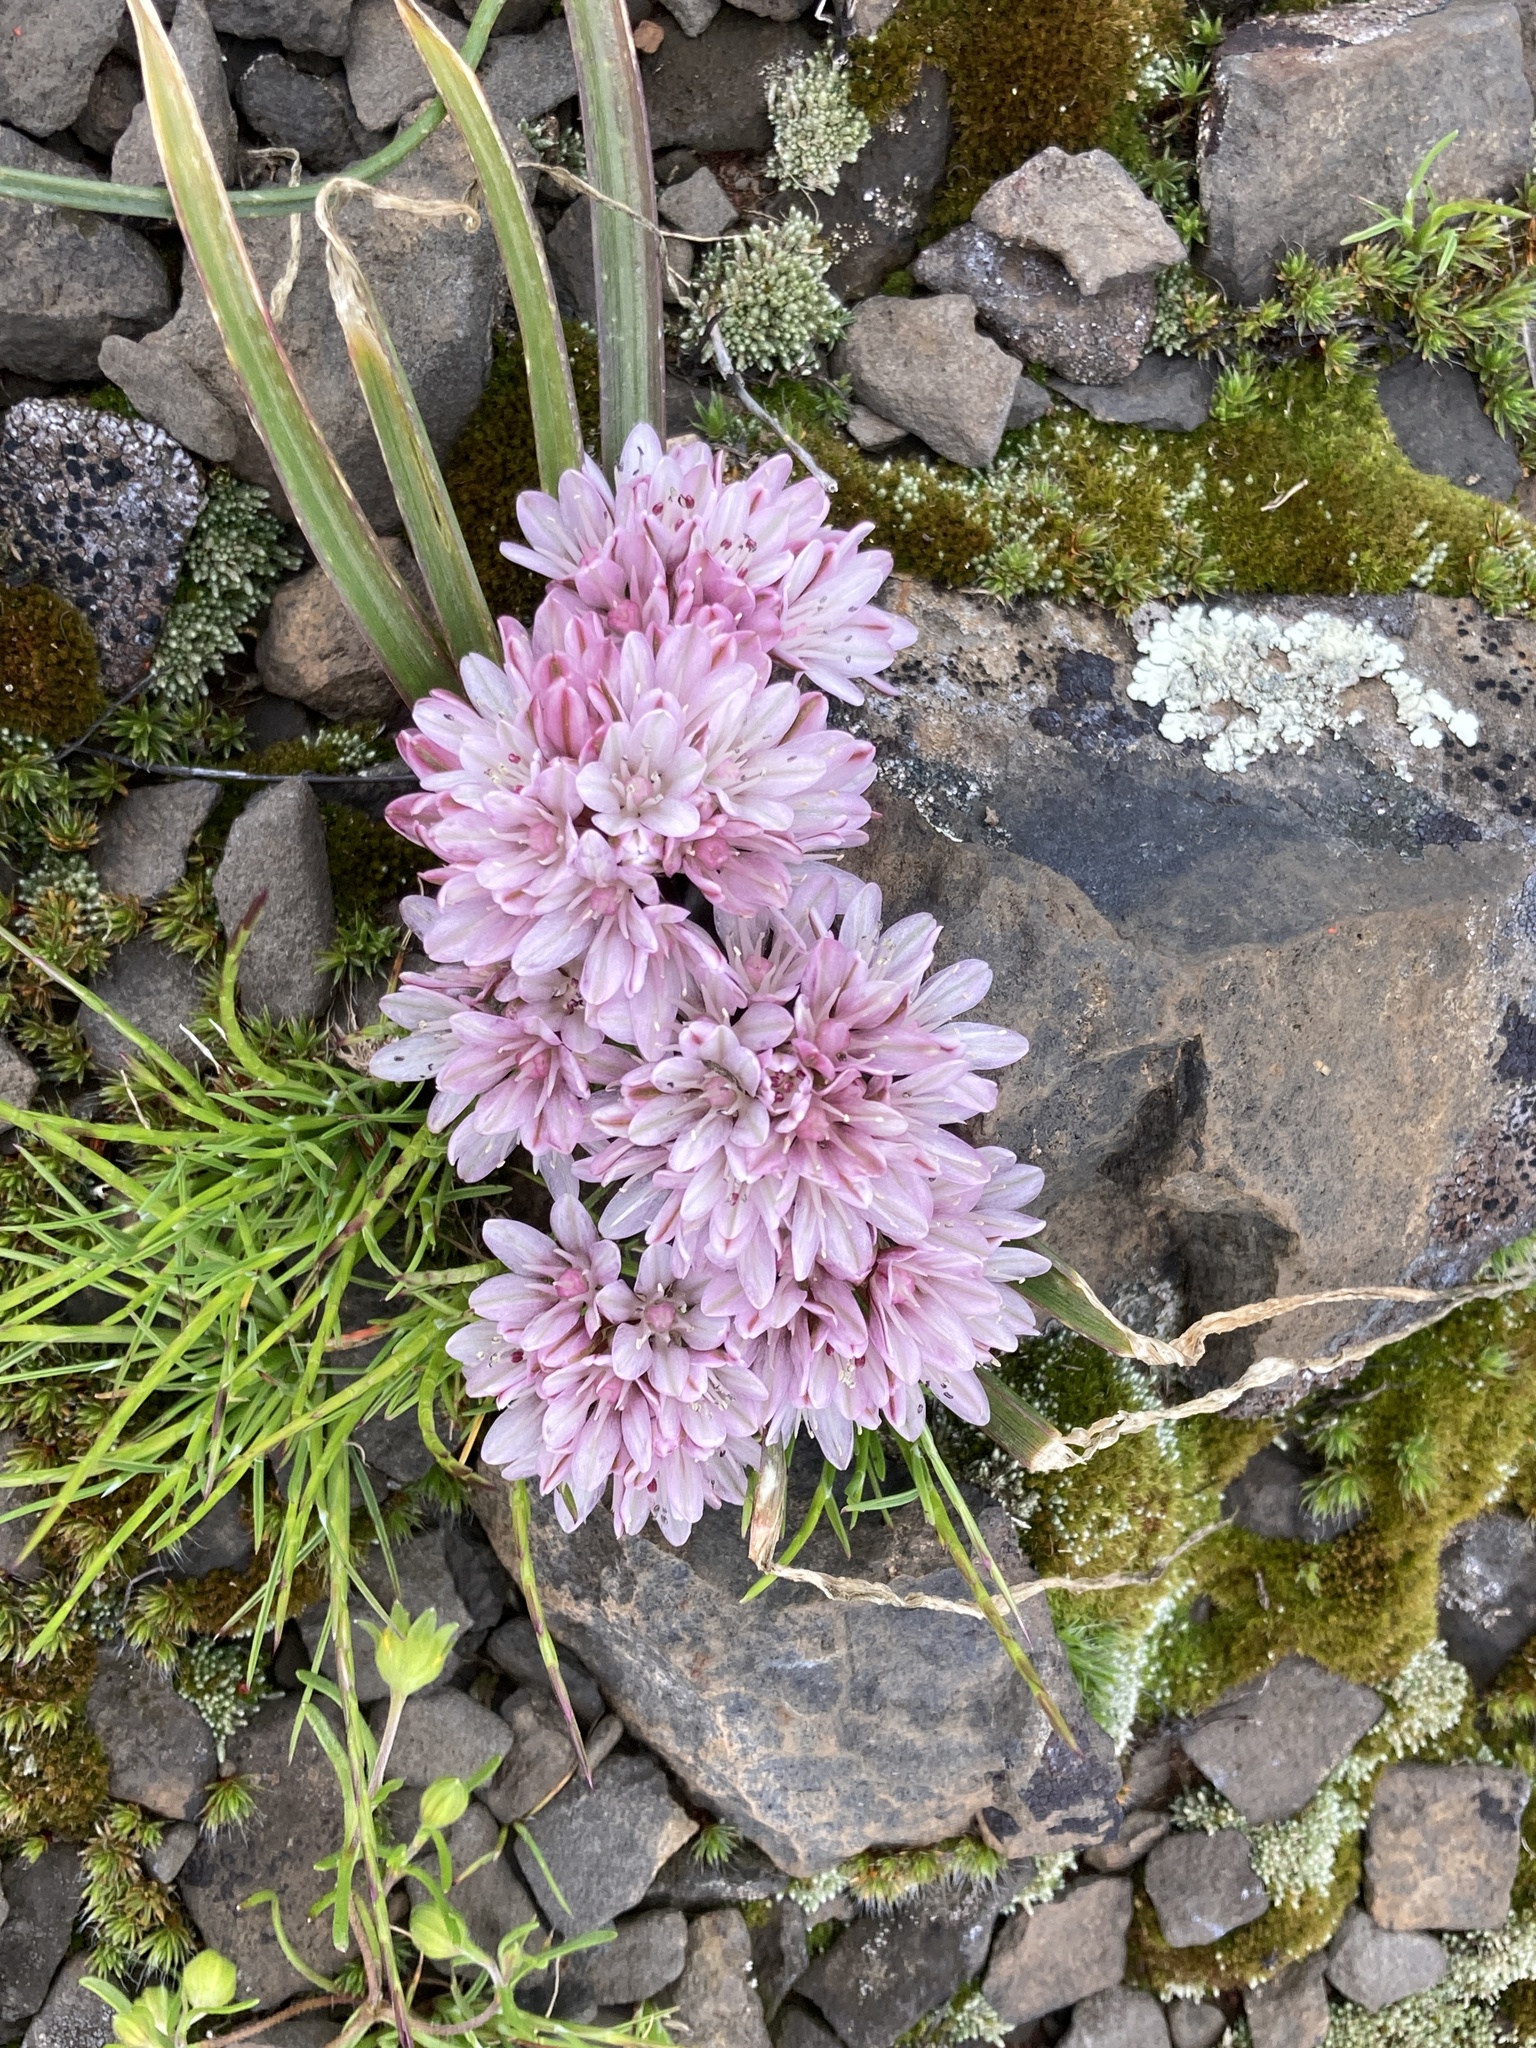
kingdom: Plantae
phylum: Tracheophyta
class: Liliopsida
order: Asparagales
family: Amaryllidaceae
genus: Allium
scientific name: Allium cratericola
